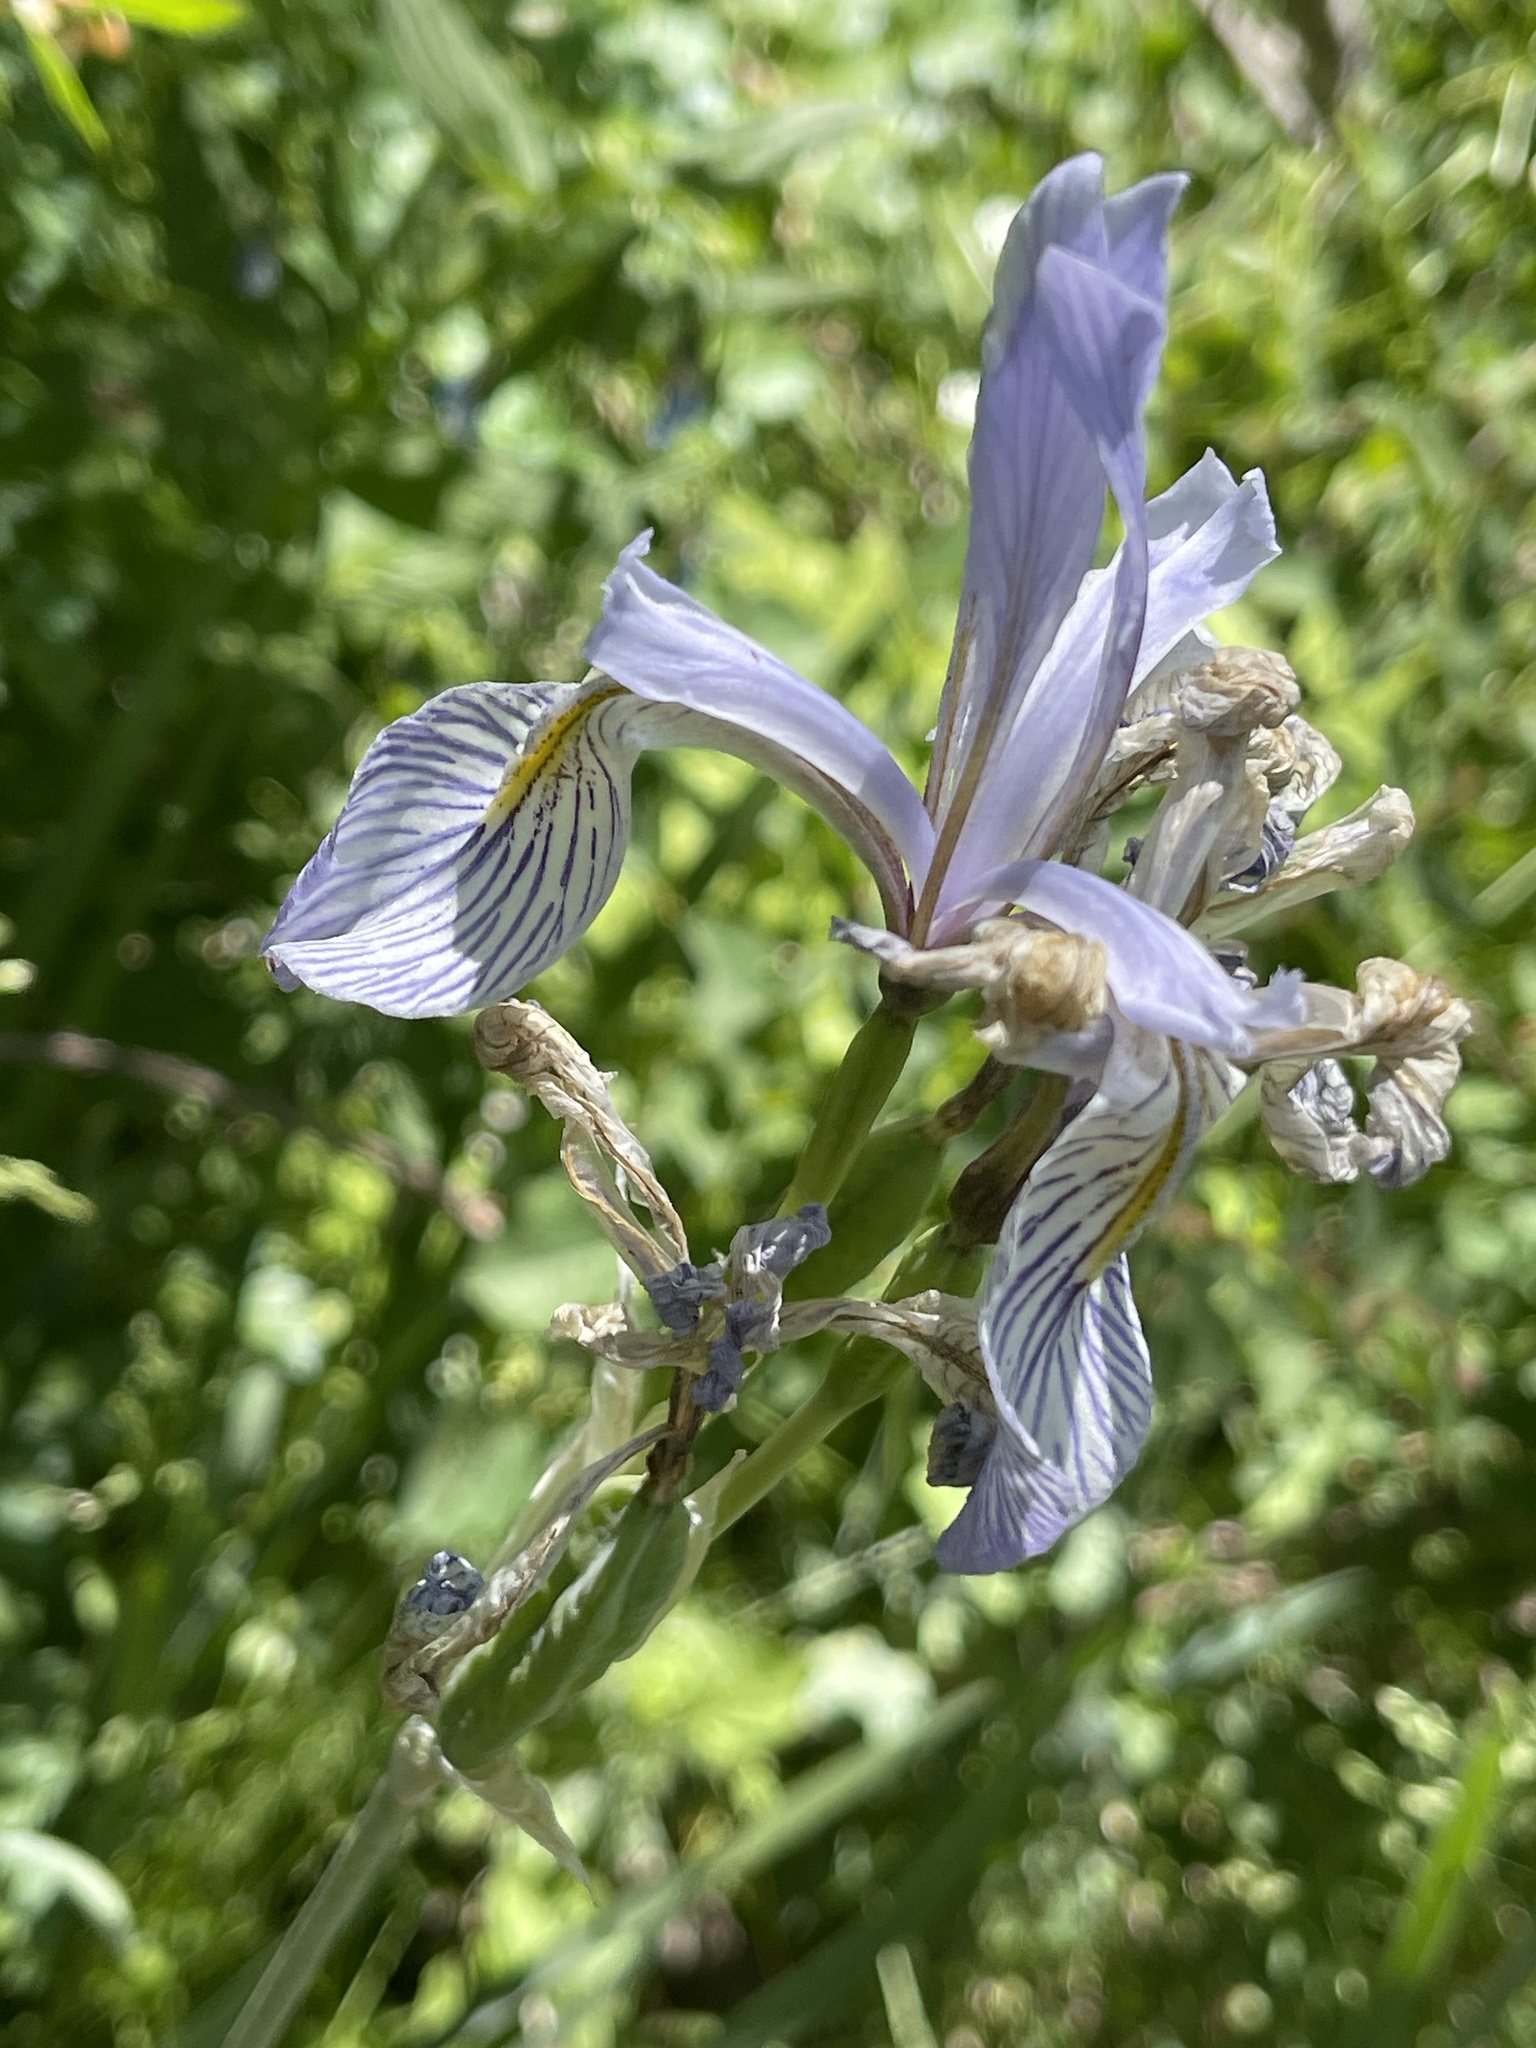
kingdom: Plantae
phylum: Tracheophyta
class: Liliopsida
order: Asparagales
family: Iridaceae
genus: Iris
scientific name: Iris missouriensis
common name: Rocky mountain iris
